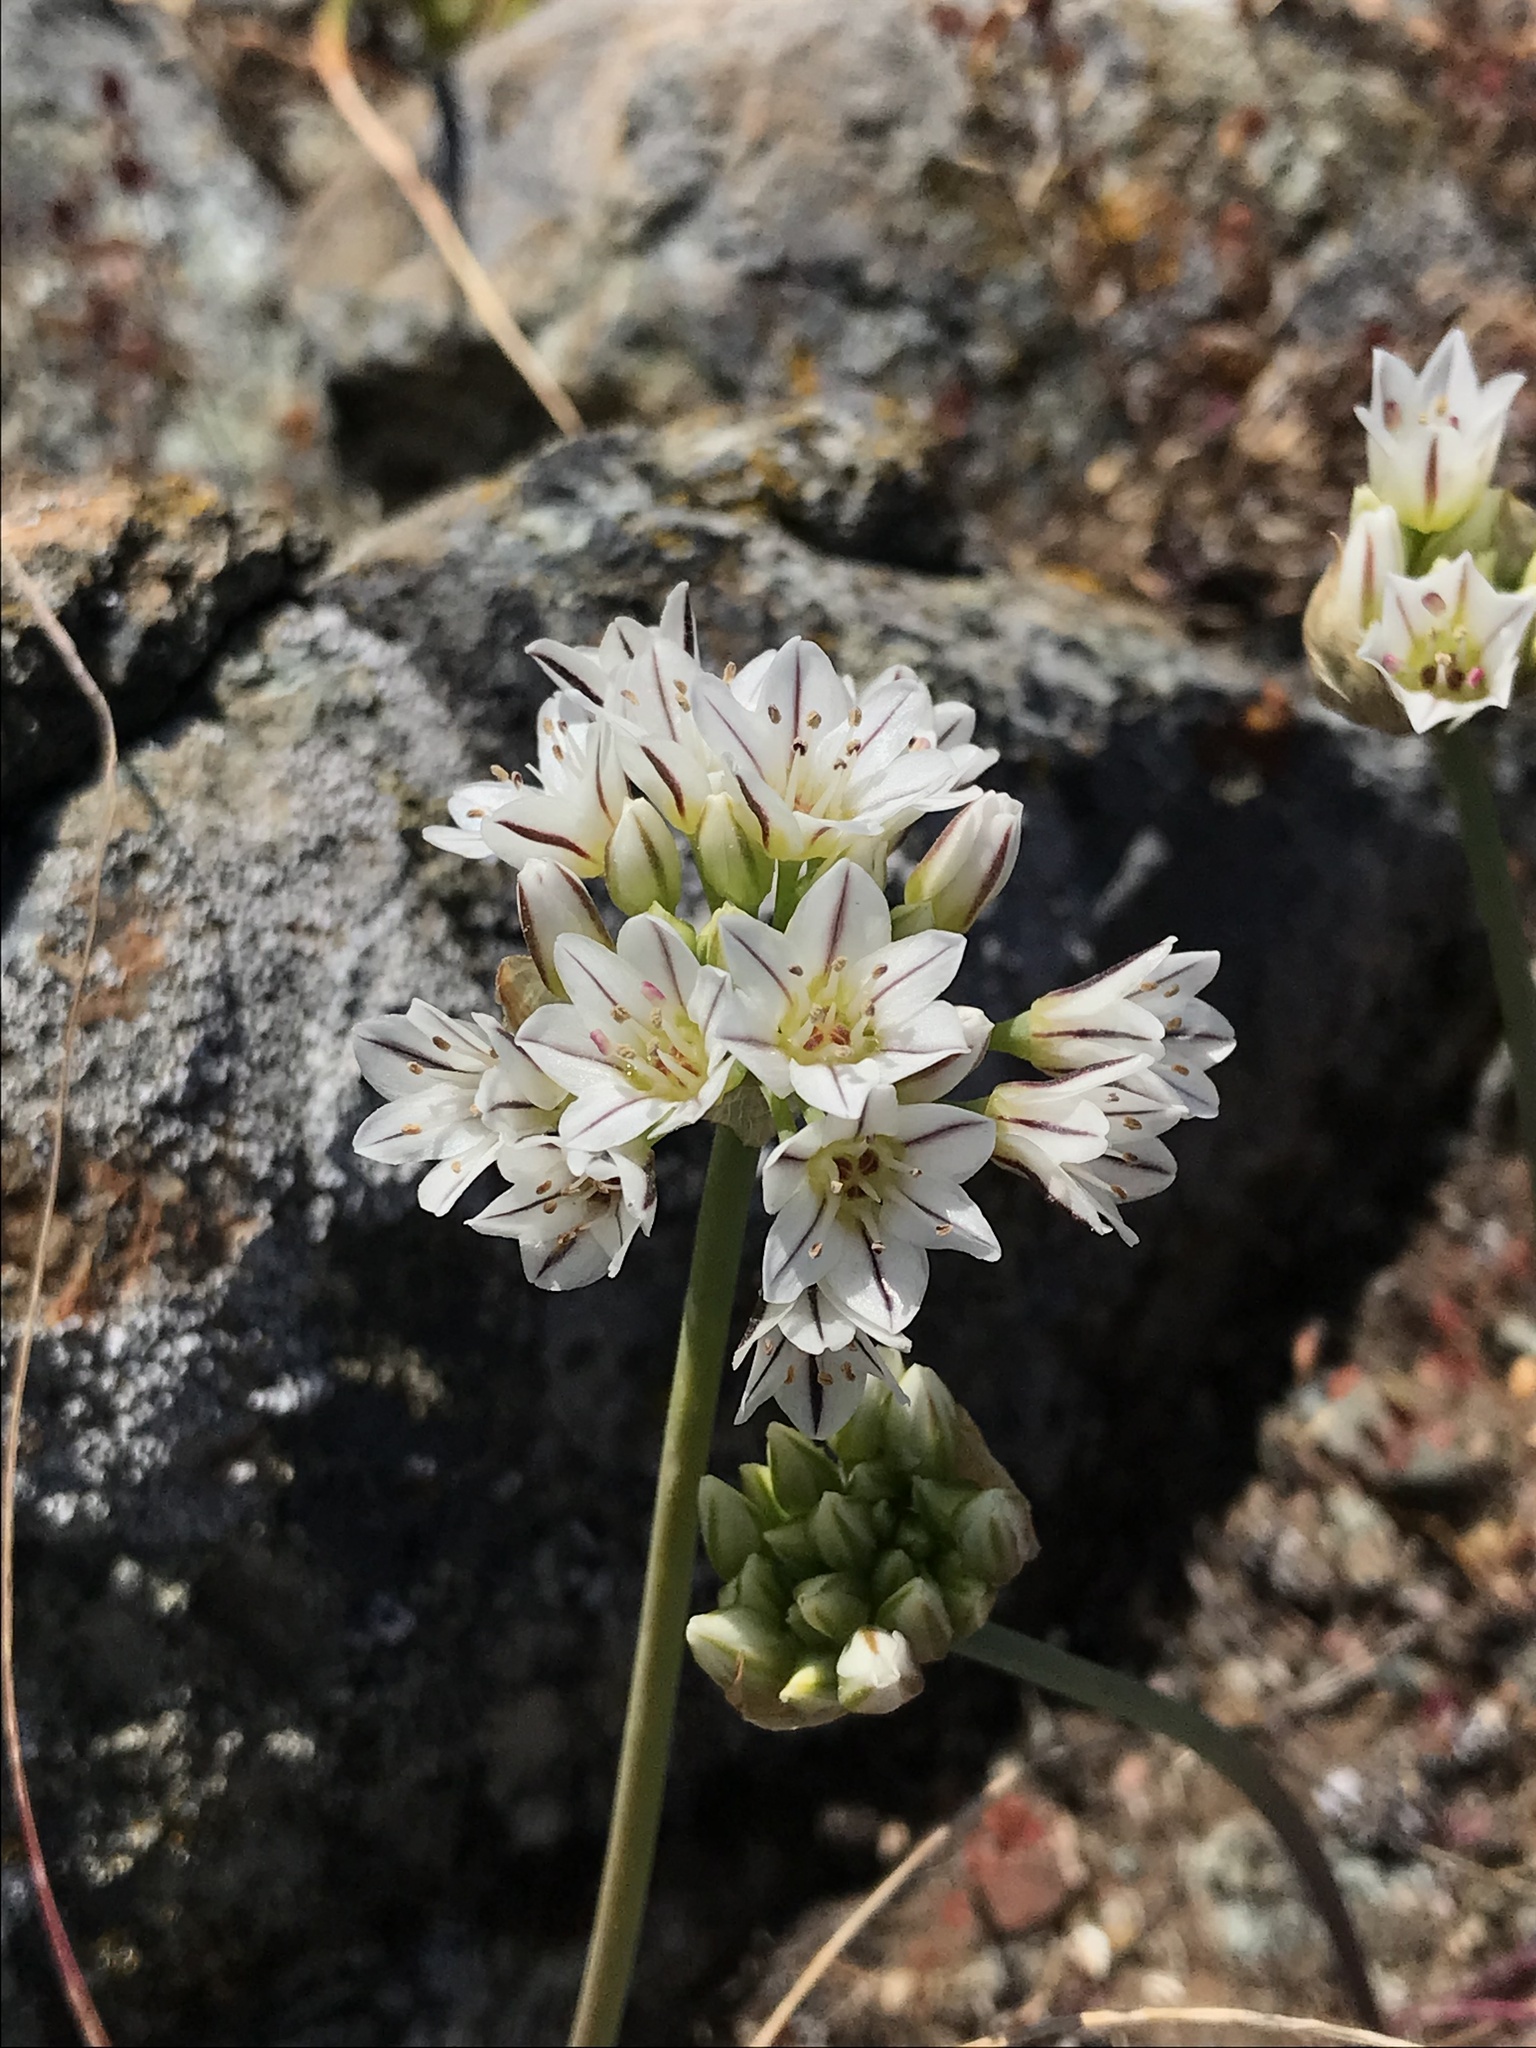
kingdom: Plantae
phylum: Tracheophyta
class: Liliopsida
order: Asparagales
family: Amaryllidaceae
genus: Allium
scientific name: Allium lacunosum
